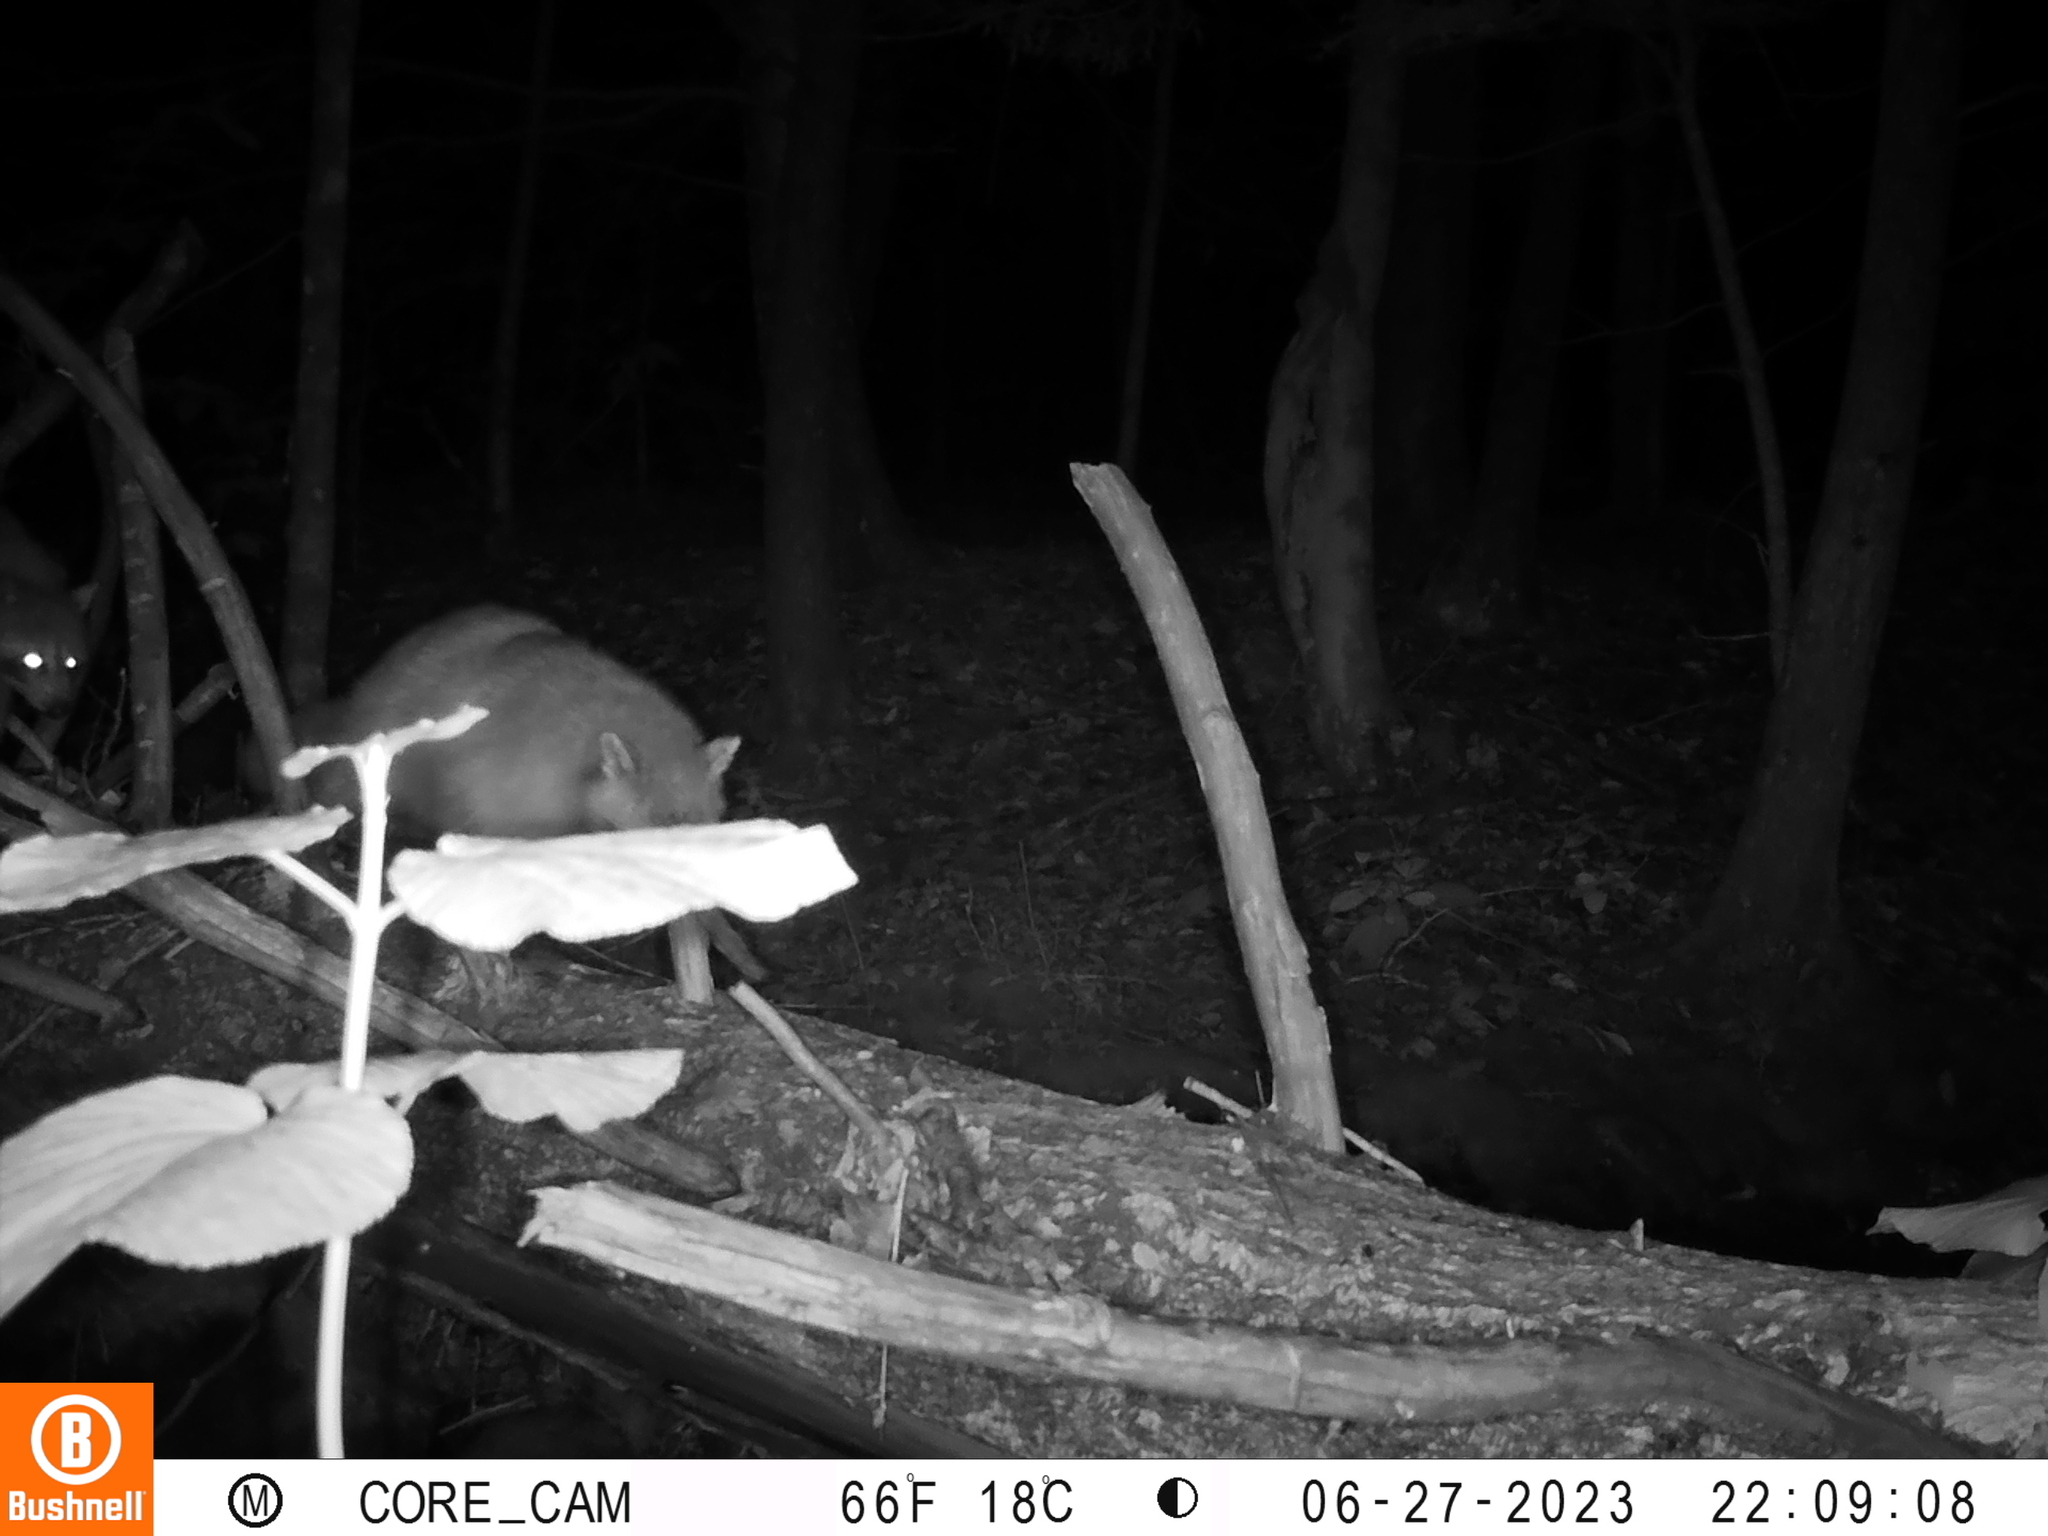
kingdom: Animalia
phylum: Chordata
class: Mammalia
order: Carnivora
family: Procyonidae
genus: Procyon
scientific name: Procyon lotor
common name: Raccoon
